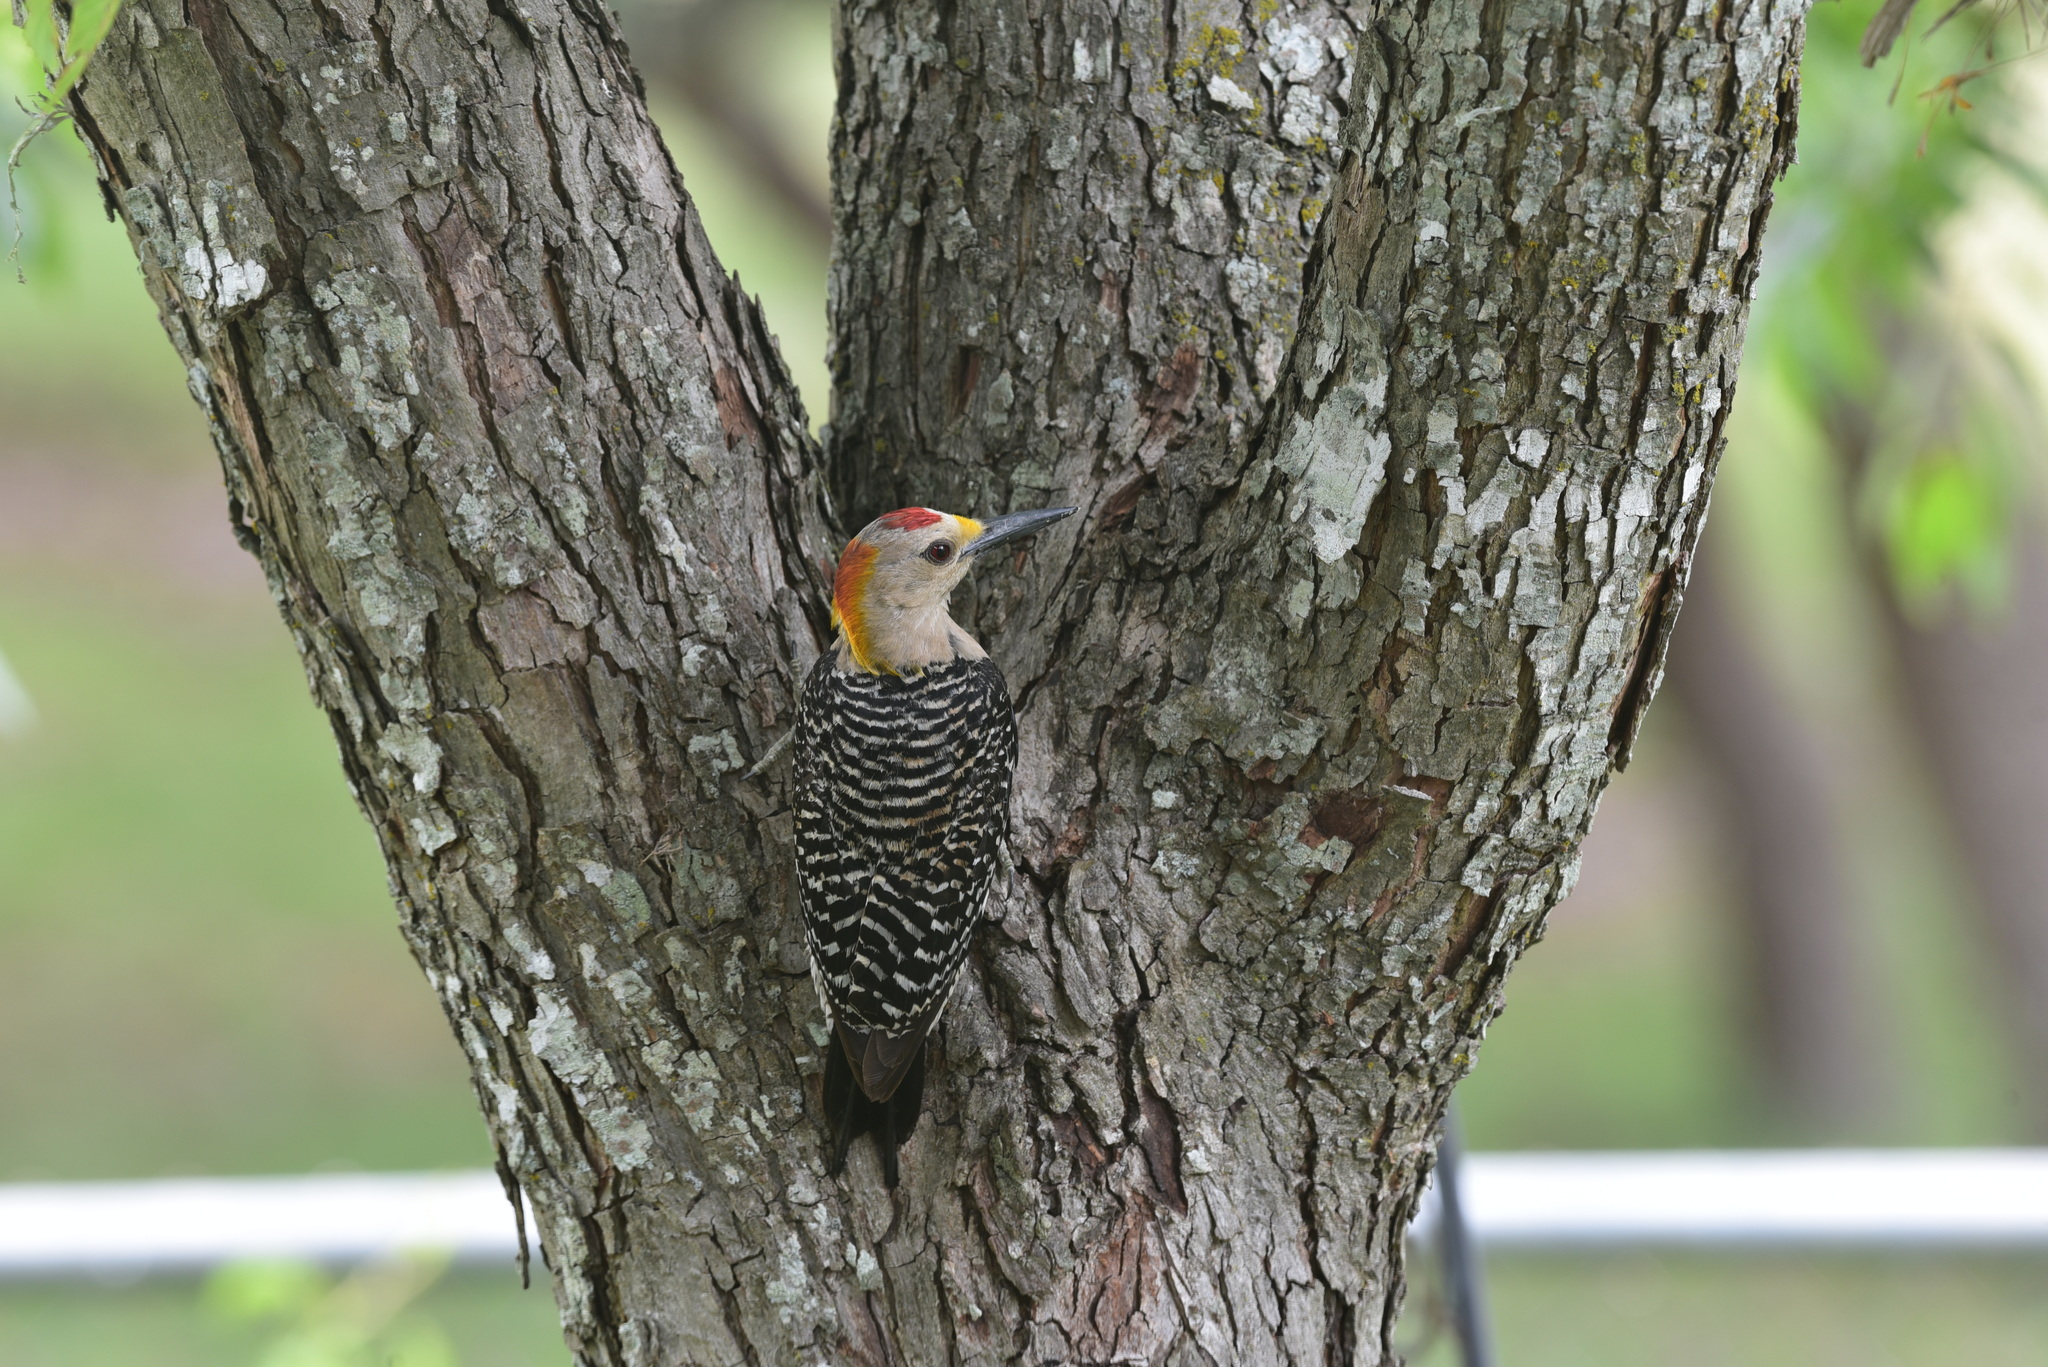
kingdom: Animalia
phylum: Chordata
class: Aves
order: Piciformes
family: Picidae
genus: Melanerpes
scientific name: Melanerpes aurifrons
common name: Golden-fronted woodpecker
